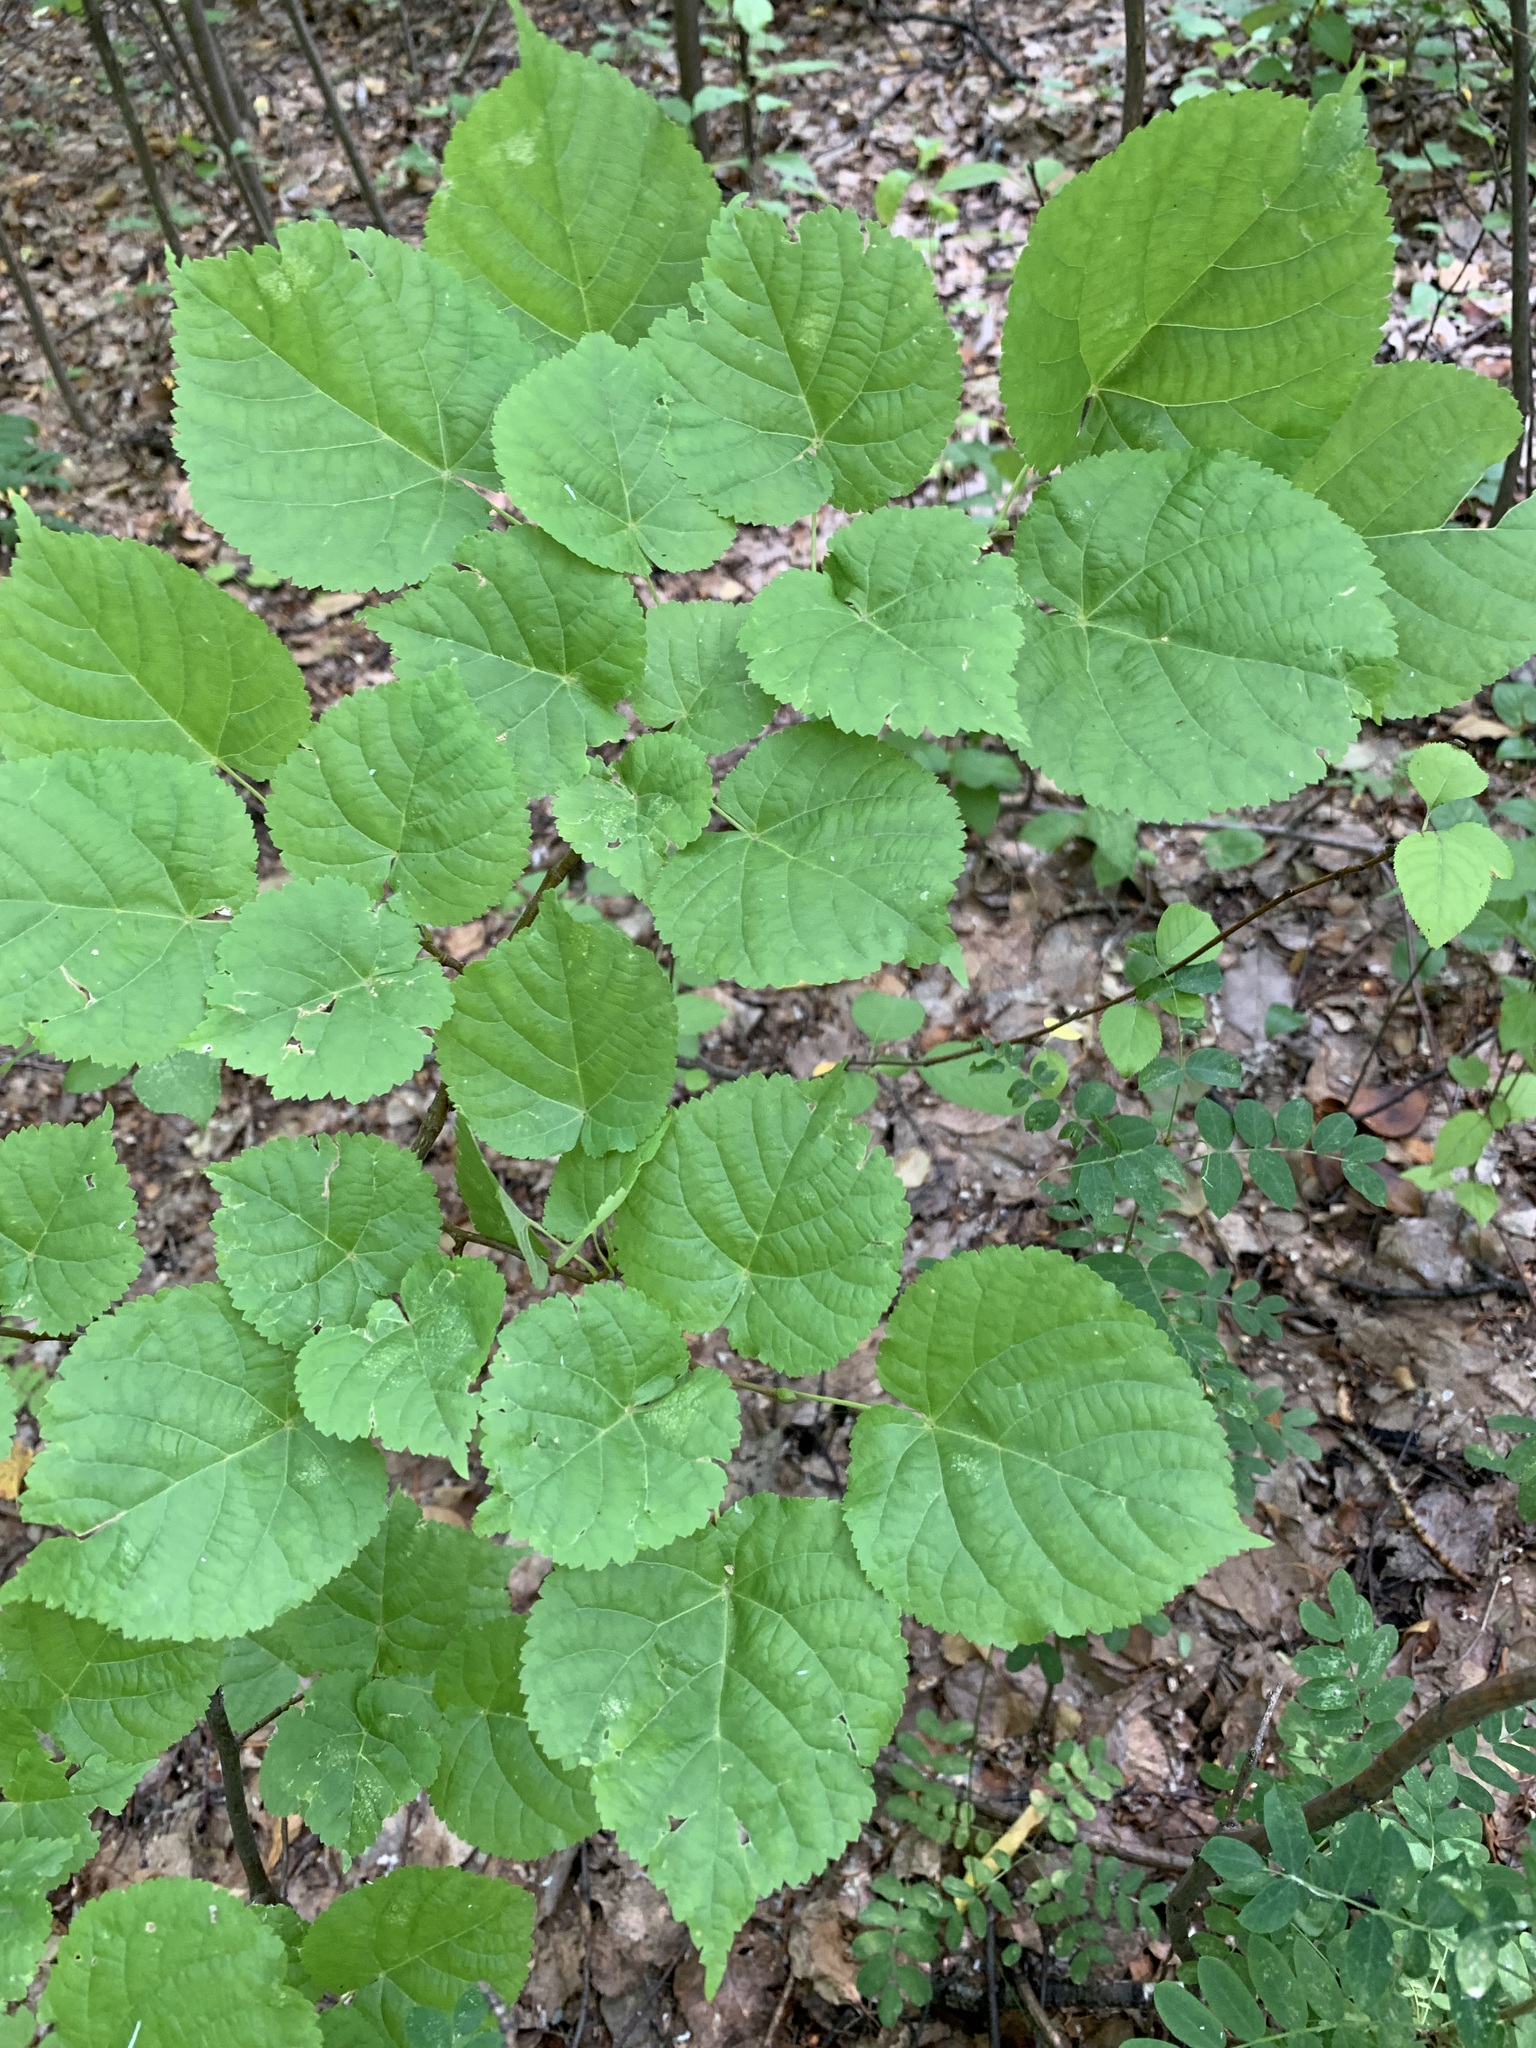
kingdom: Plantae
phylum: Tracheophyta
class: Magnoliopsida
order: Malvales
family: Malvaceae
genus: Tilia
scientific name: Tilia cordata
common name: Small-leaved lime
